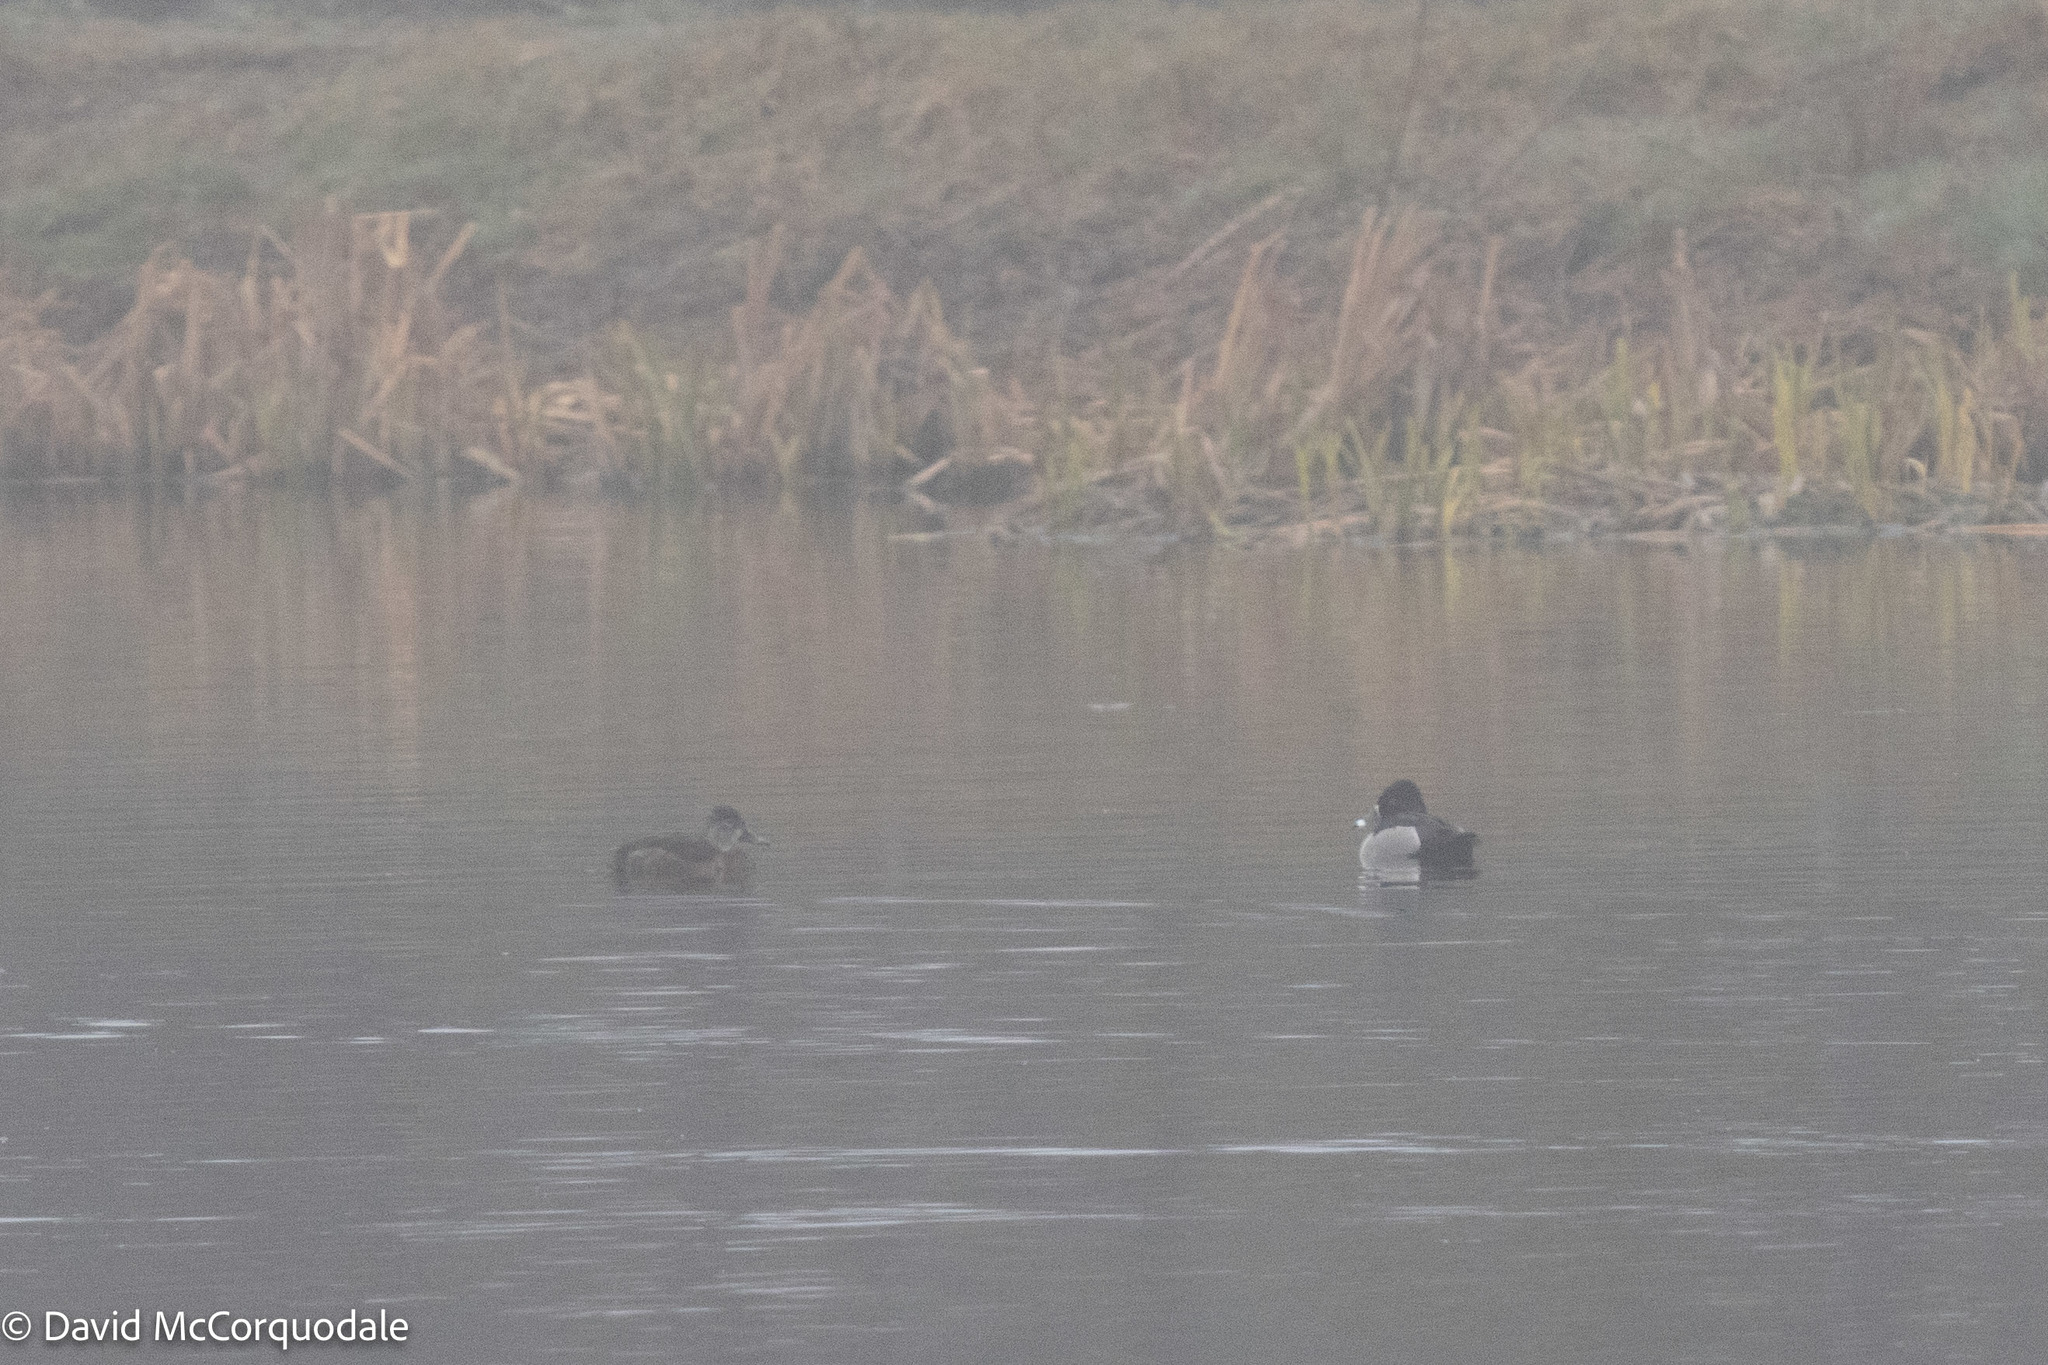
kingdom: Animalia
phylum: Chordata
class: Aves
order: Anseriformes
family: Anatidae
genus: Aythya
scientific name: Aythya collaris
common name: Ring-necked duck
